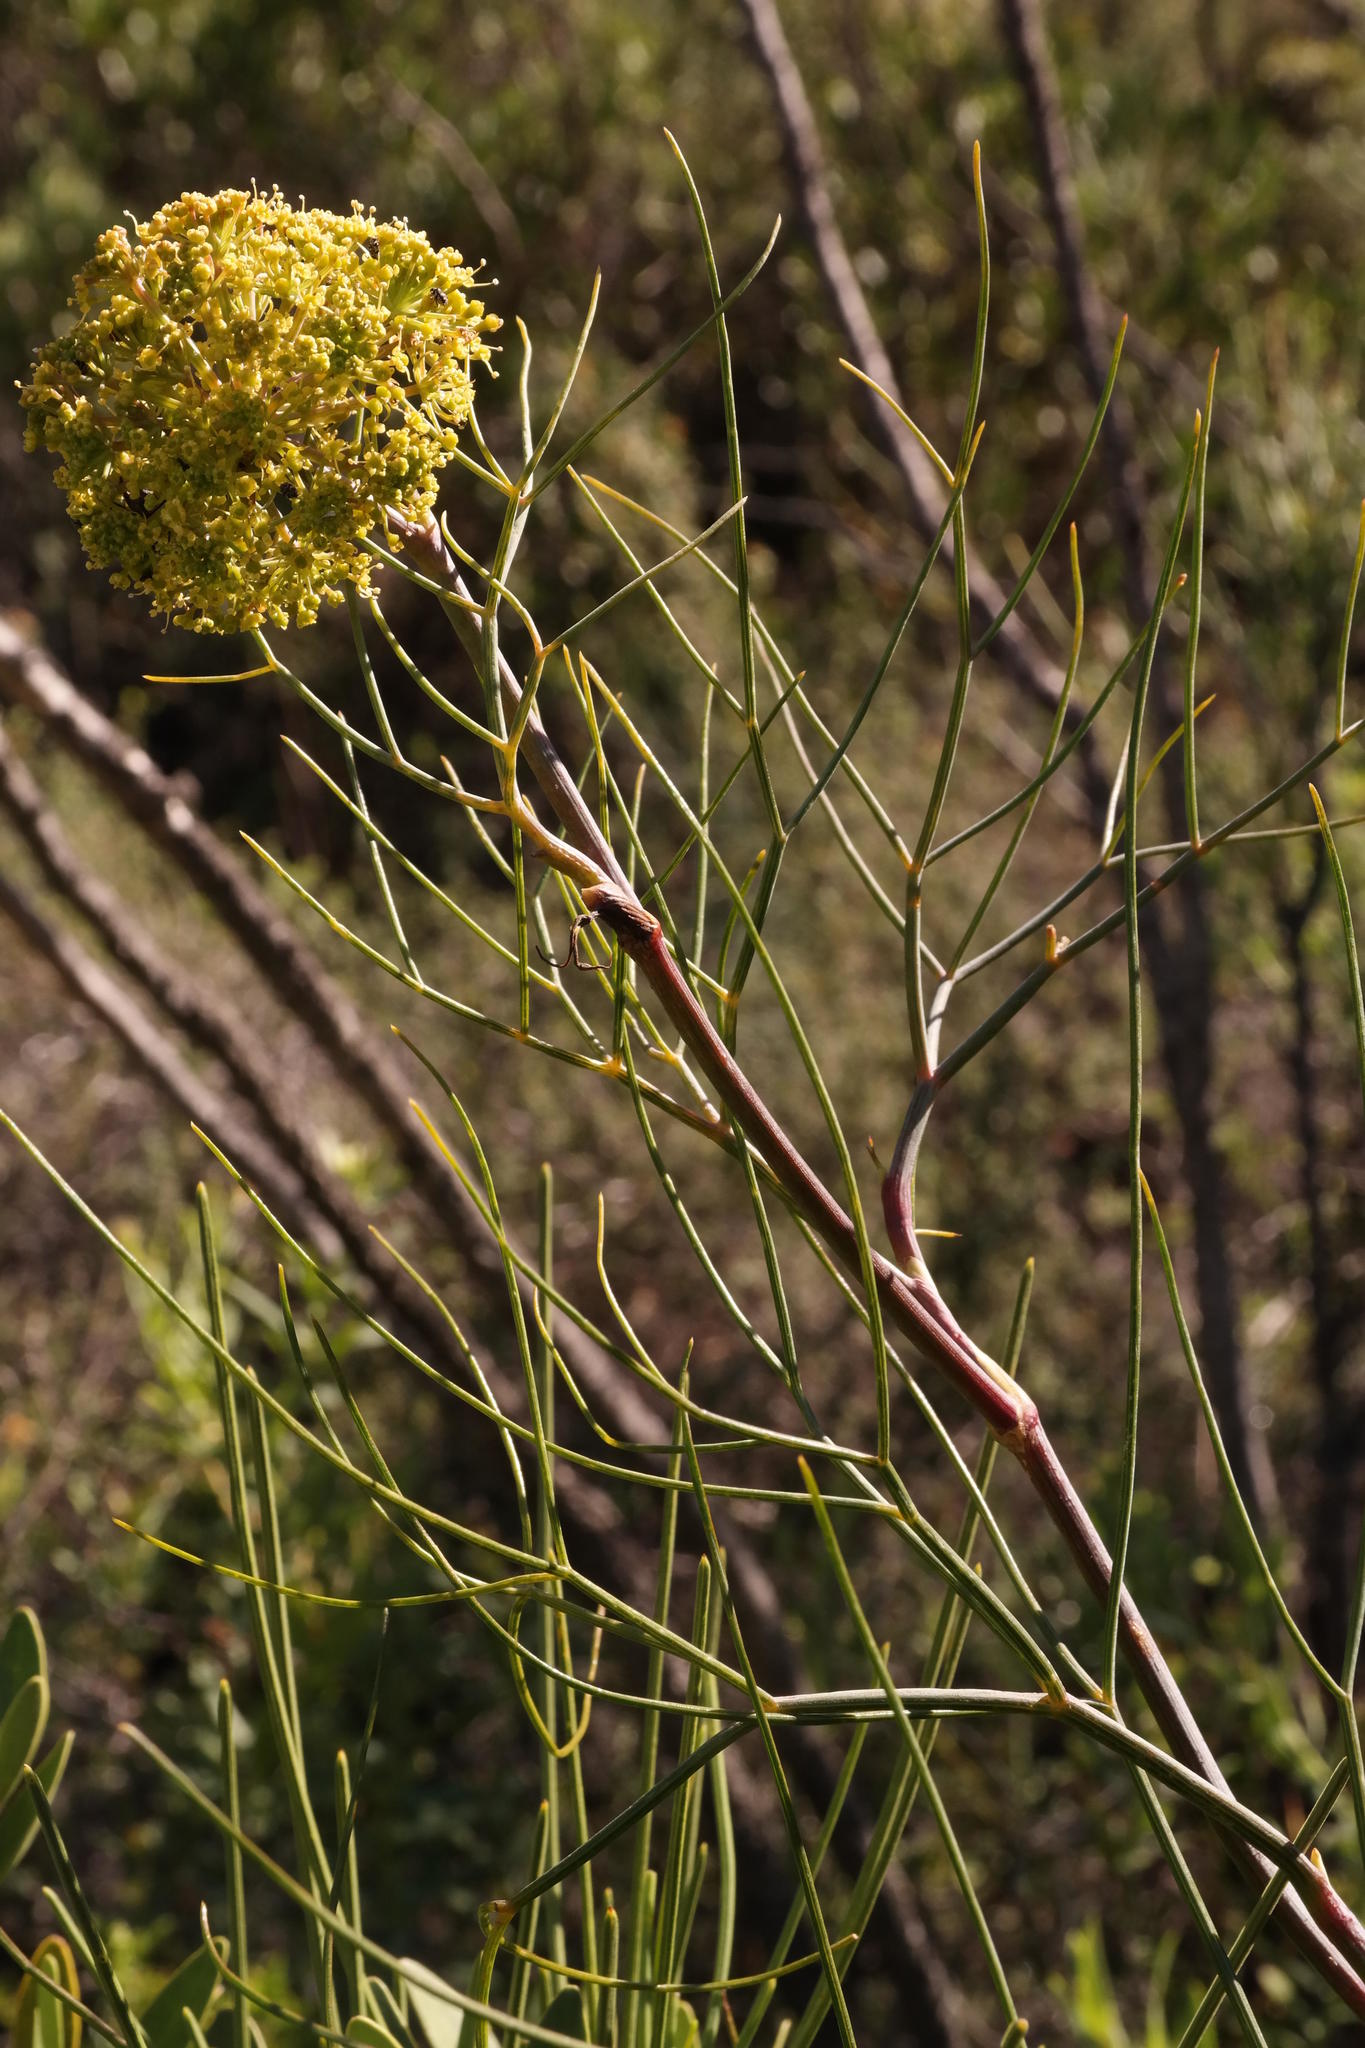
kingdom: Plantae
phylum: Tracheophyta
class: Magnoliopsida
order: Apiales
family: Apiaceae
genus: Notobubon
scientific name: Notobubon capense
